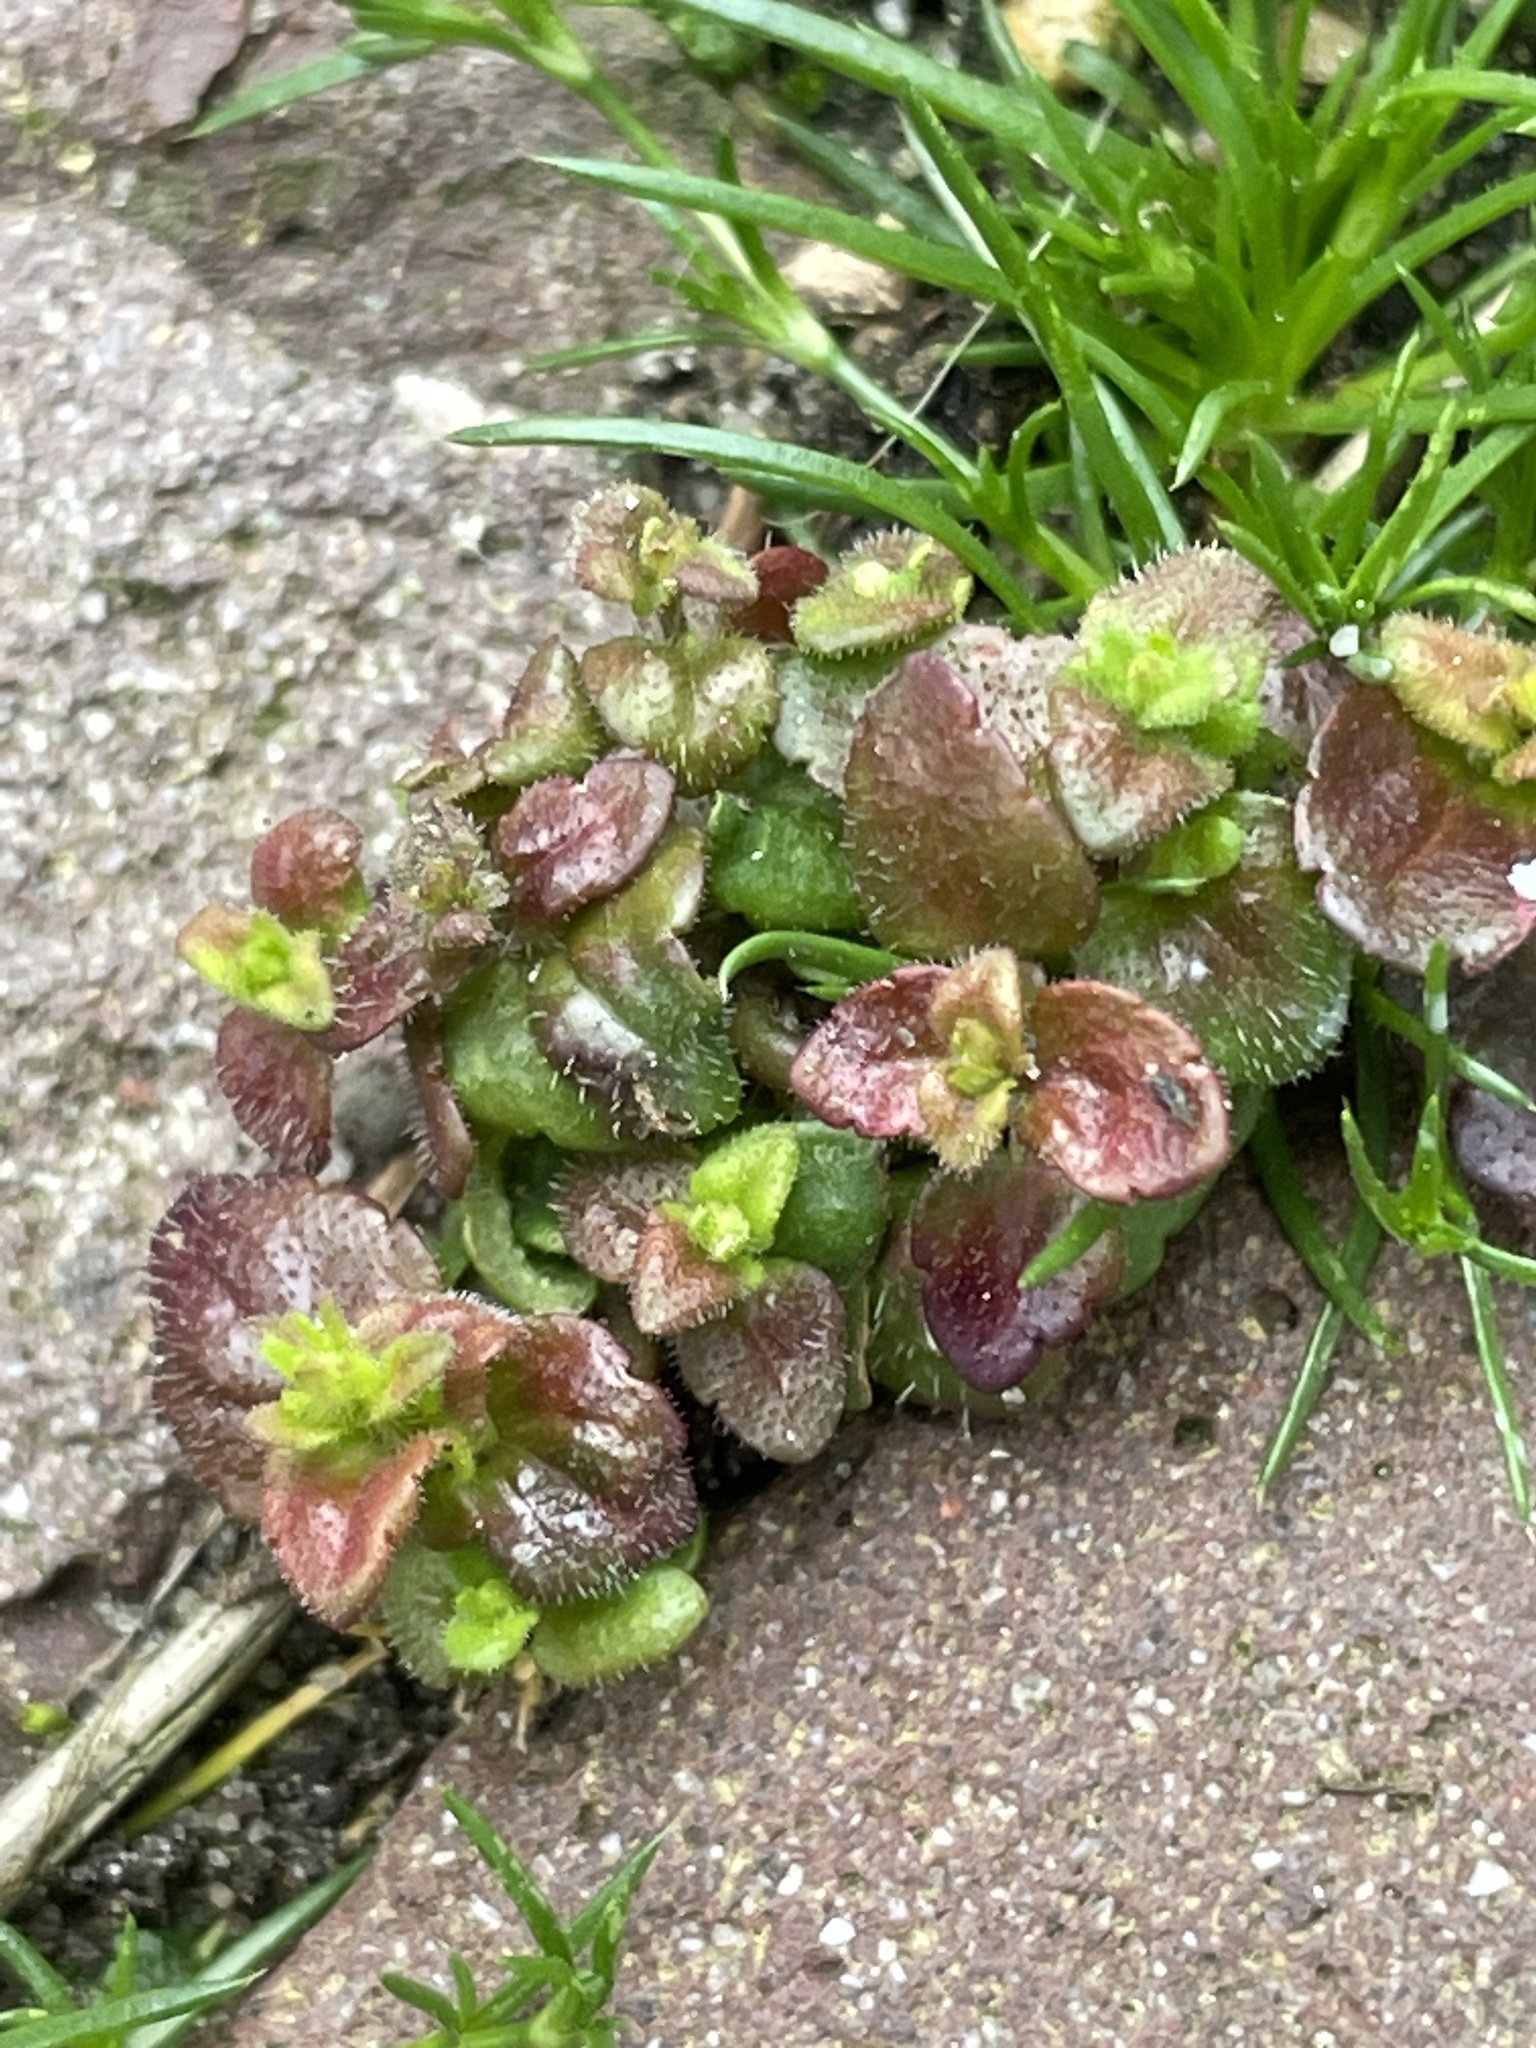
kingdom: Plantae
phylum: Tracheophyta
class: Magnoliopsida
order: Lamiales
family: Plantaginaceae
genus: Veronica
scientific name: Veronica arvensis
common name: Corn speedwell
